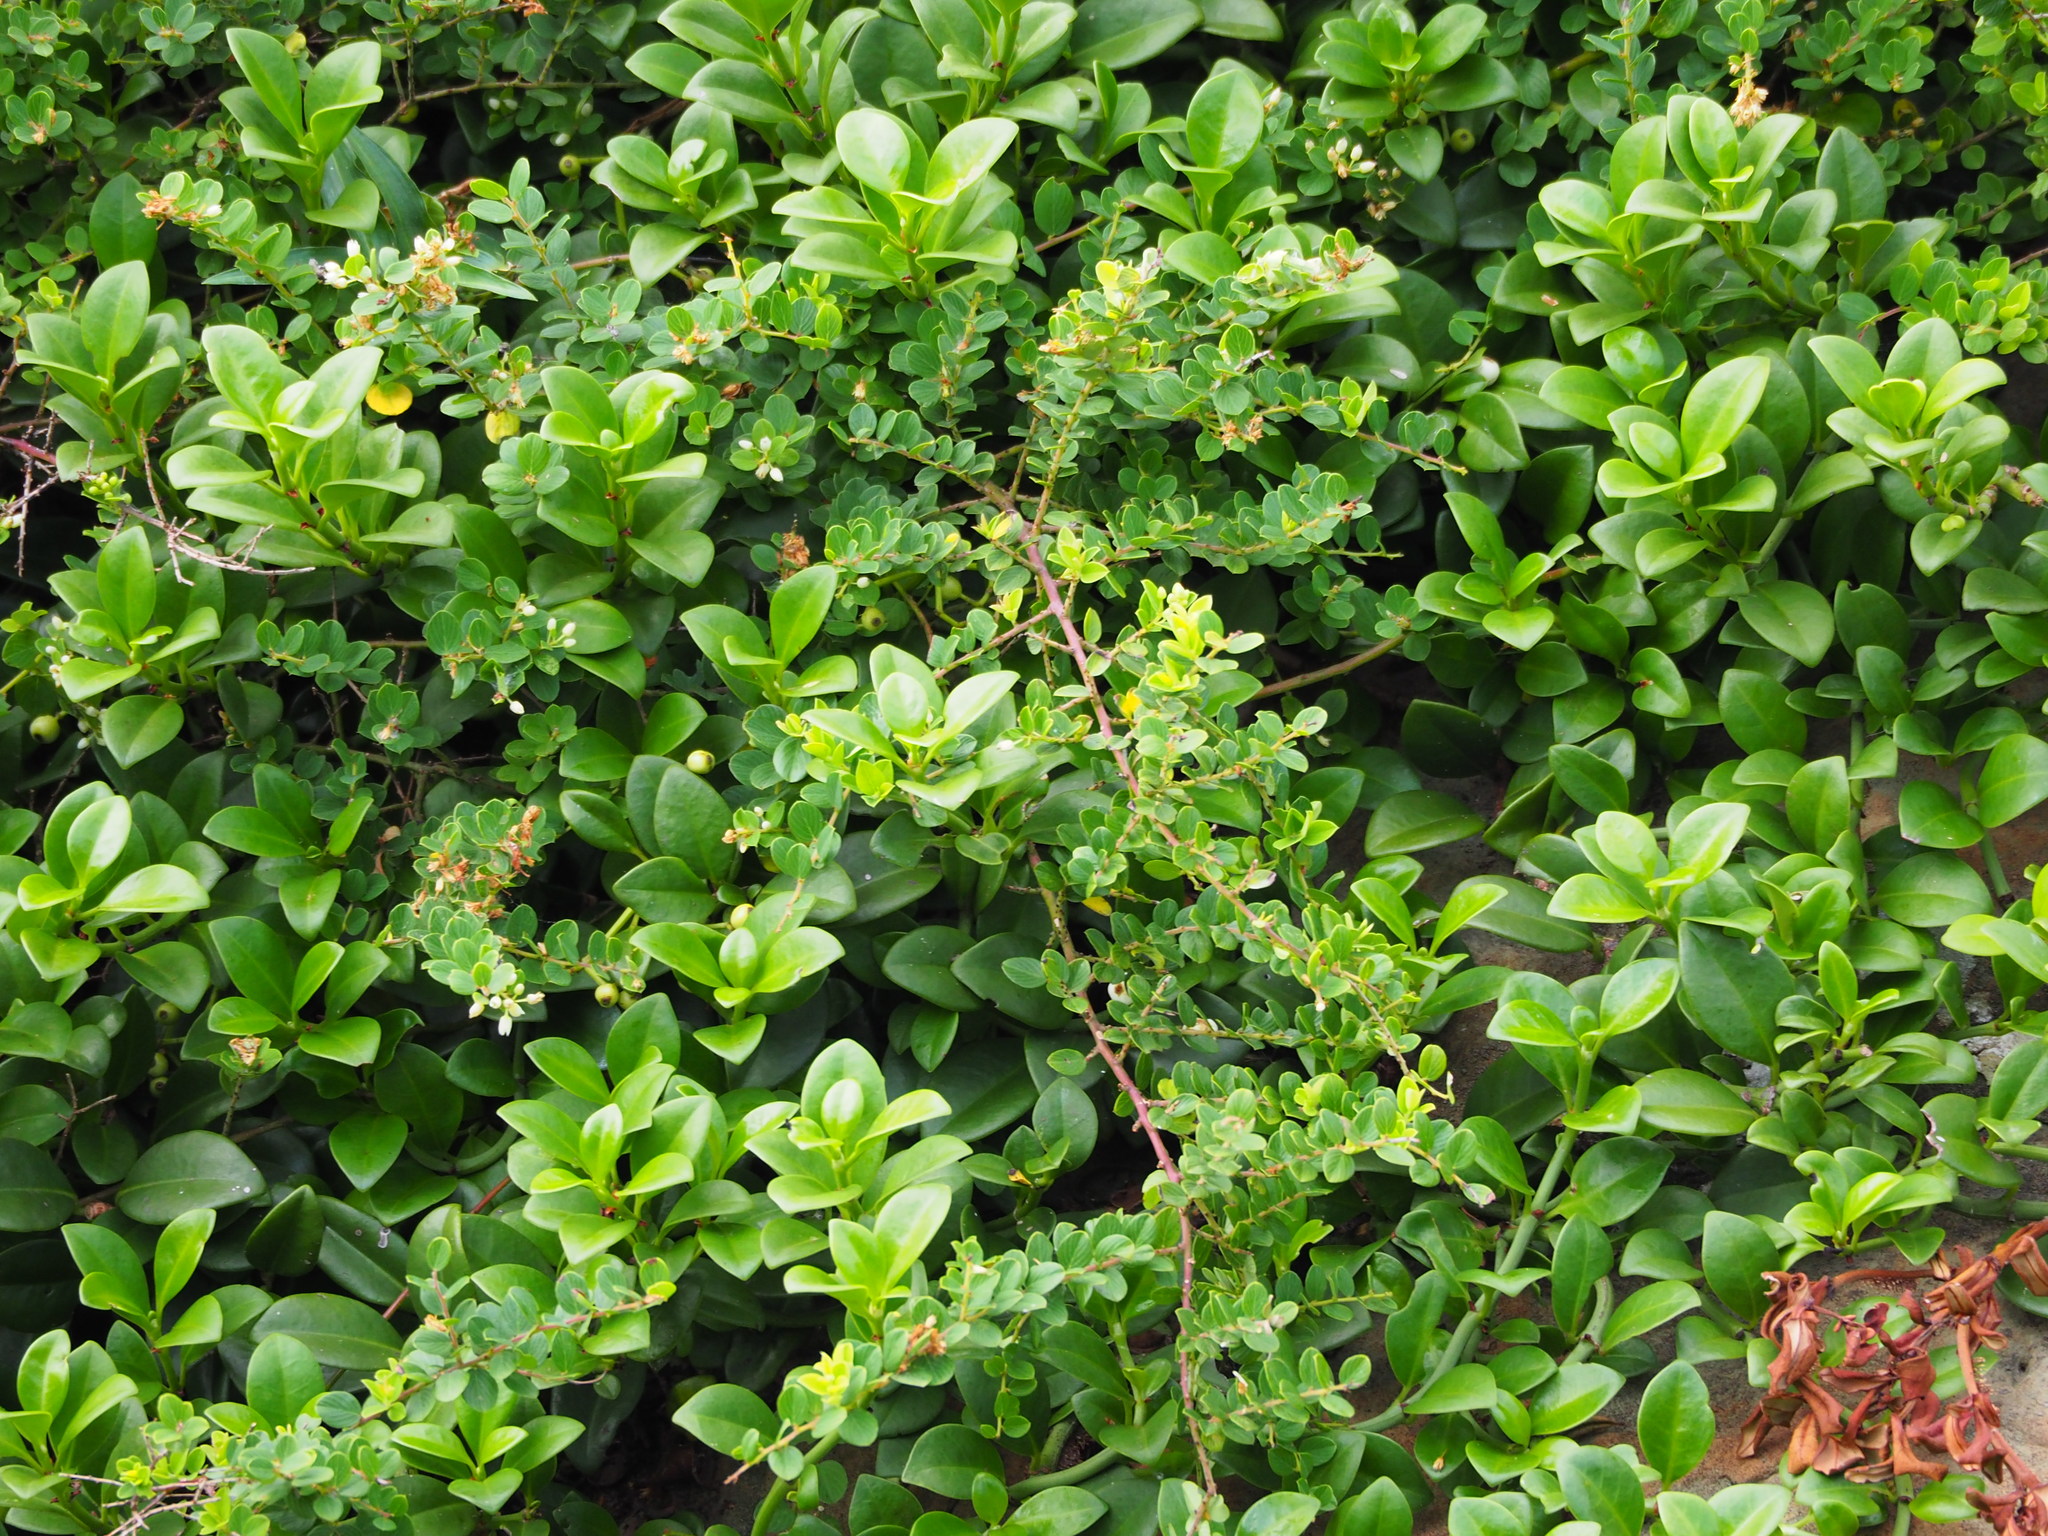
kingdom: Plantae
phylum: Tracheophyta
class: Magnoliopsida
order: Rosales
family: Rhamnaceae
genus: Berchemia
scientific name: Berchemia lineata
